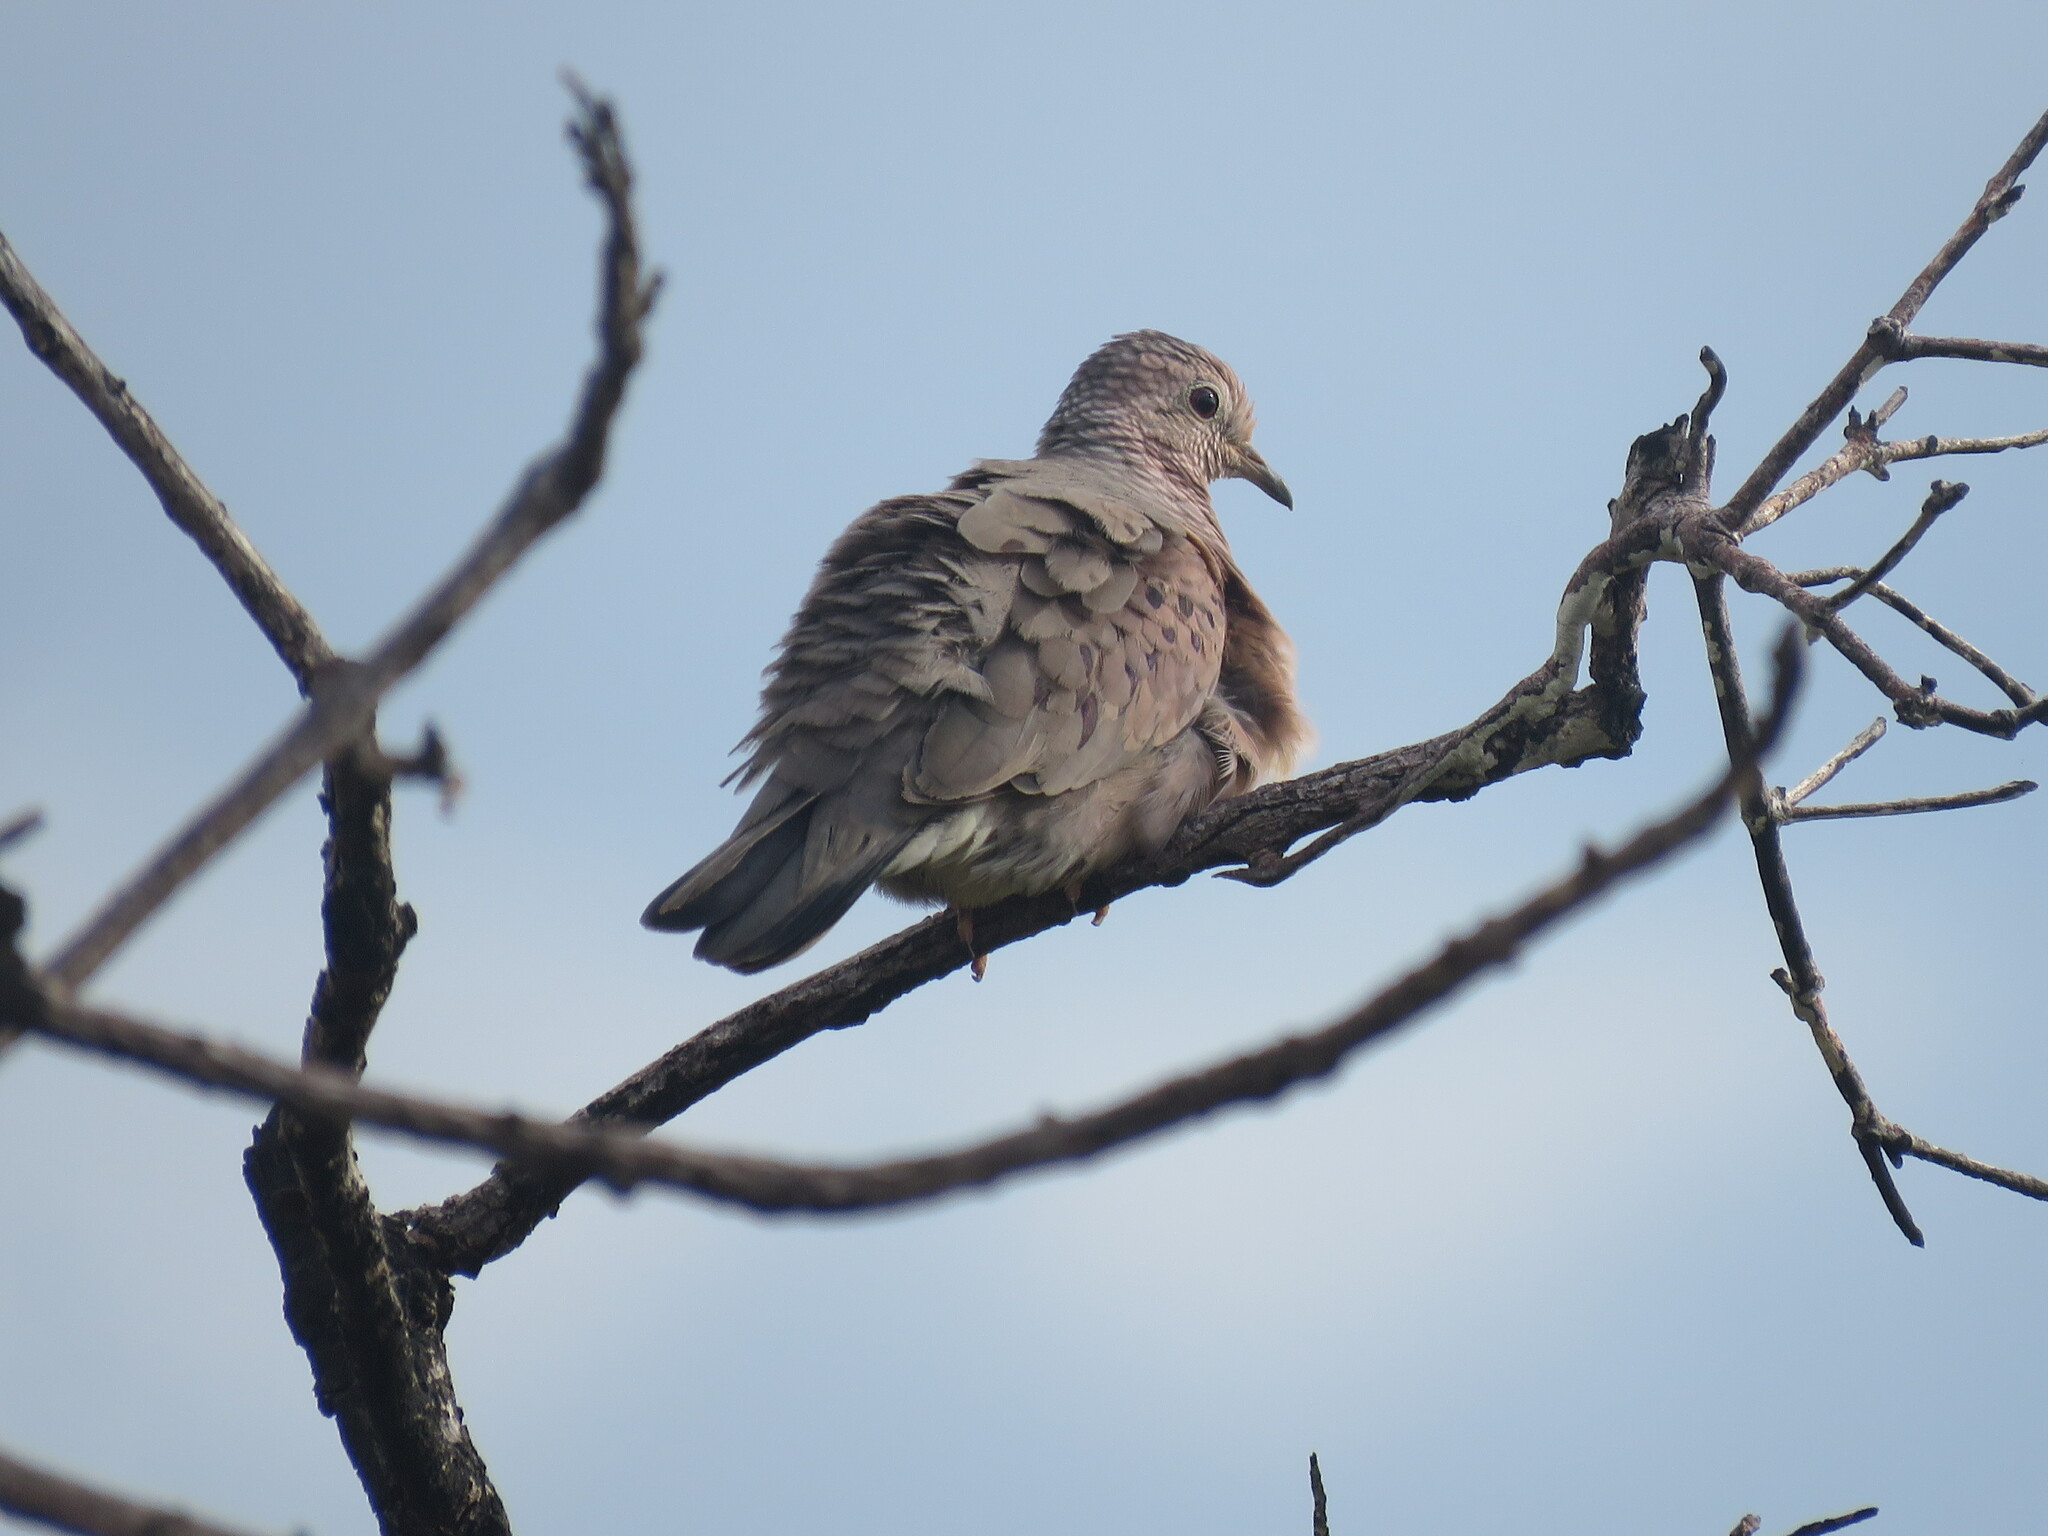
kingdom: Animalia
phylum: Chordata
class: Aves
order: Columbiformes
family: Columbidae
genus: Columbina
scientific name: Columbina passerina
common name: Common ground-dove
